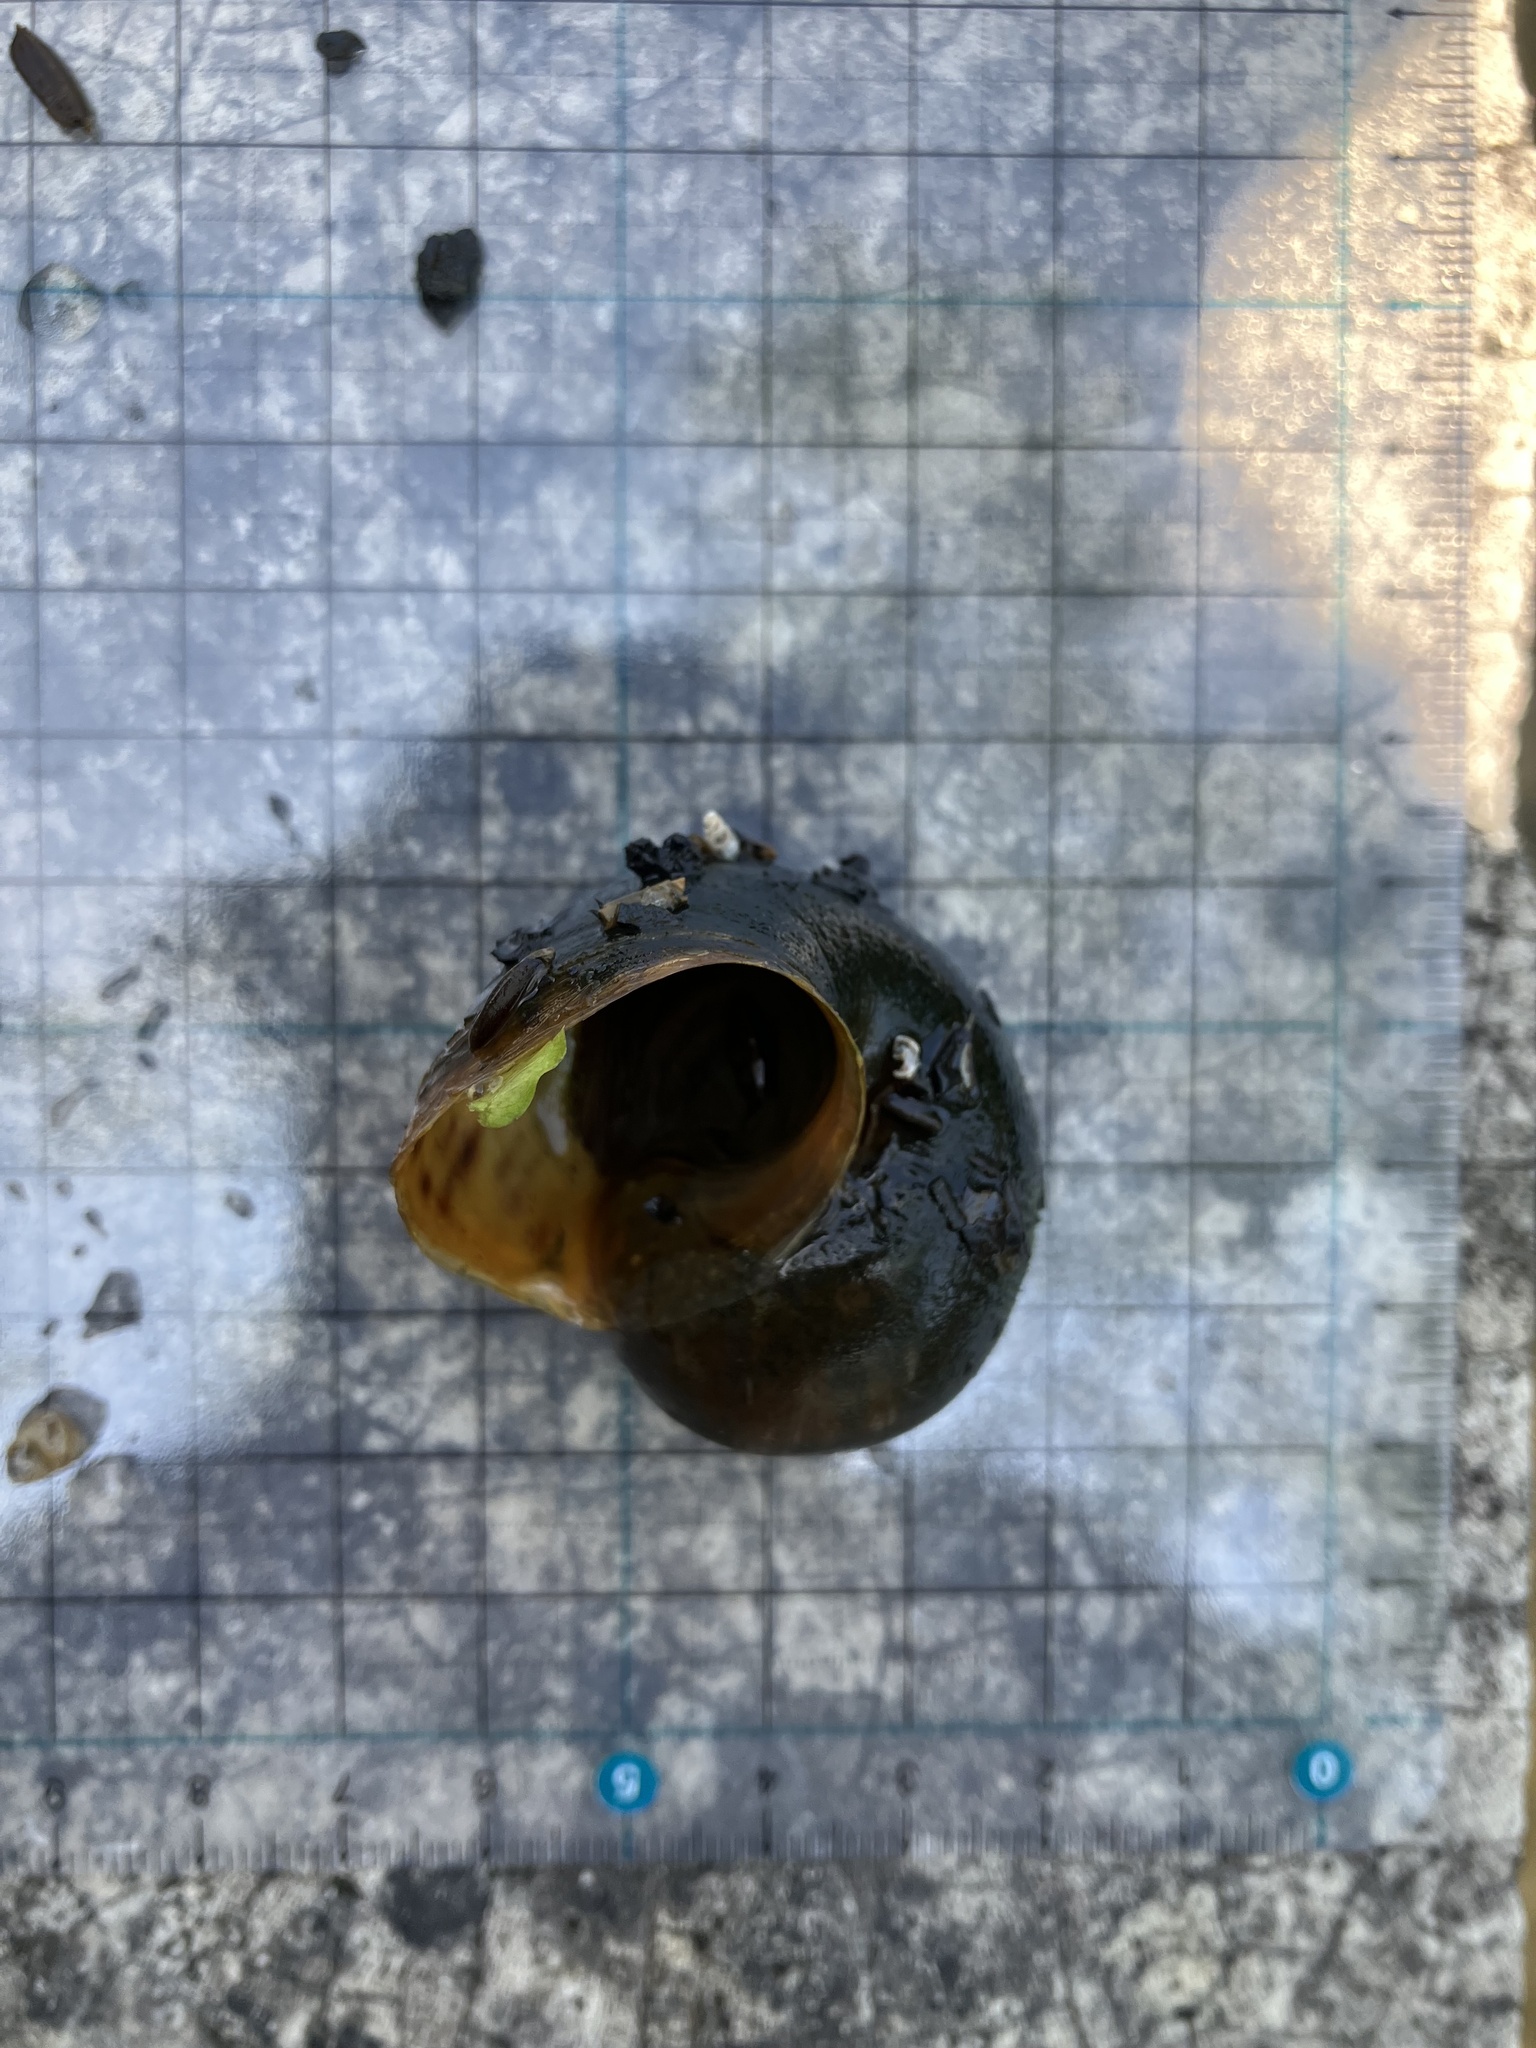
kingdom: Animalia
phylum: Mollusca
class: Gastropoda
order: Architaenioglossa
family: Ampullariidae
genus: Pomacea
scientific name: Pomacea canaliculata
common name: Channeled applesnail
